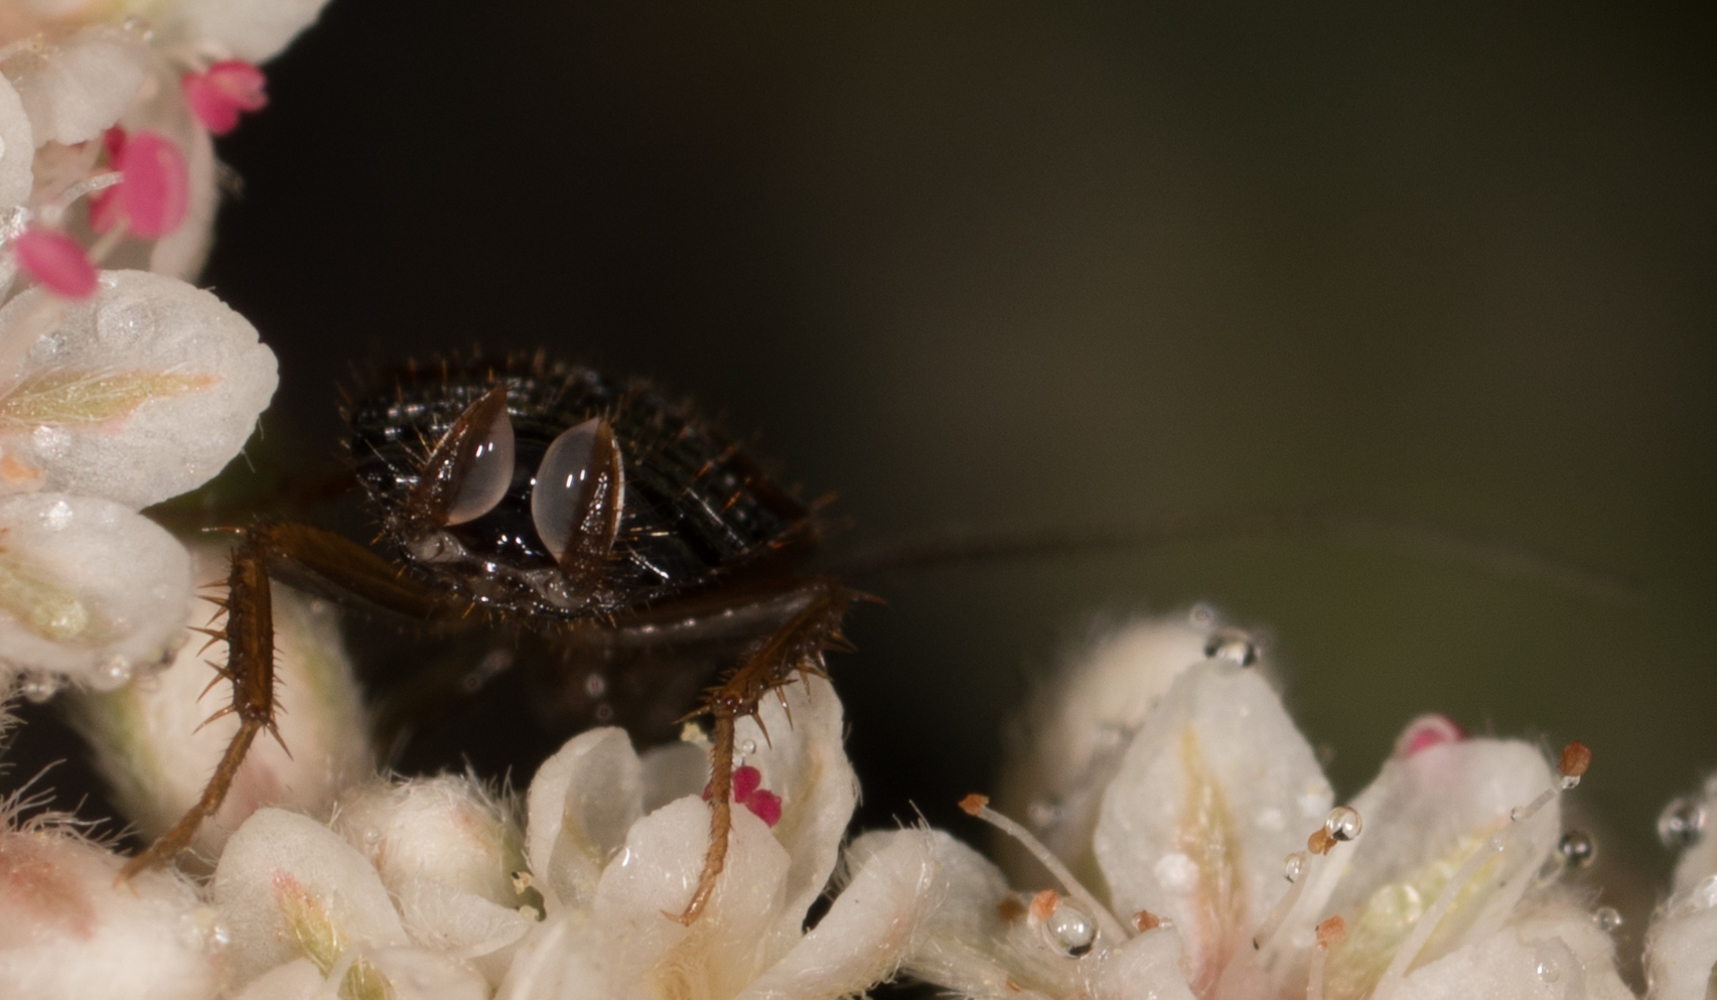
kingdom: Animalia
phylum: Arthropoda
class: Insecta
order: Blattodea
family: Ectobiidae
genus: Parcoblatta
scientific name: Parcoblatta americana
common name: Western wood cockroach
